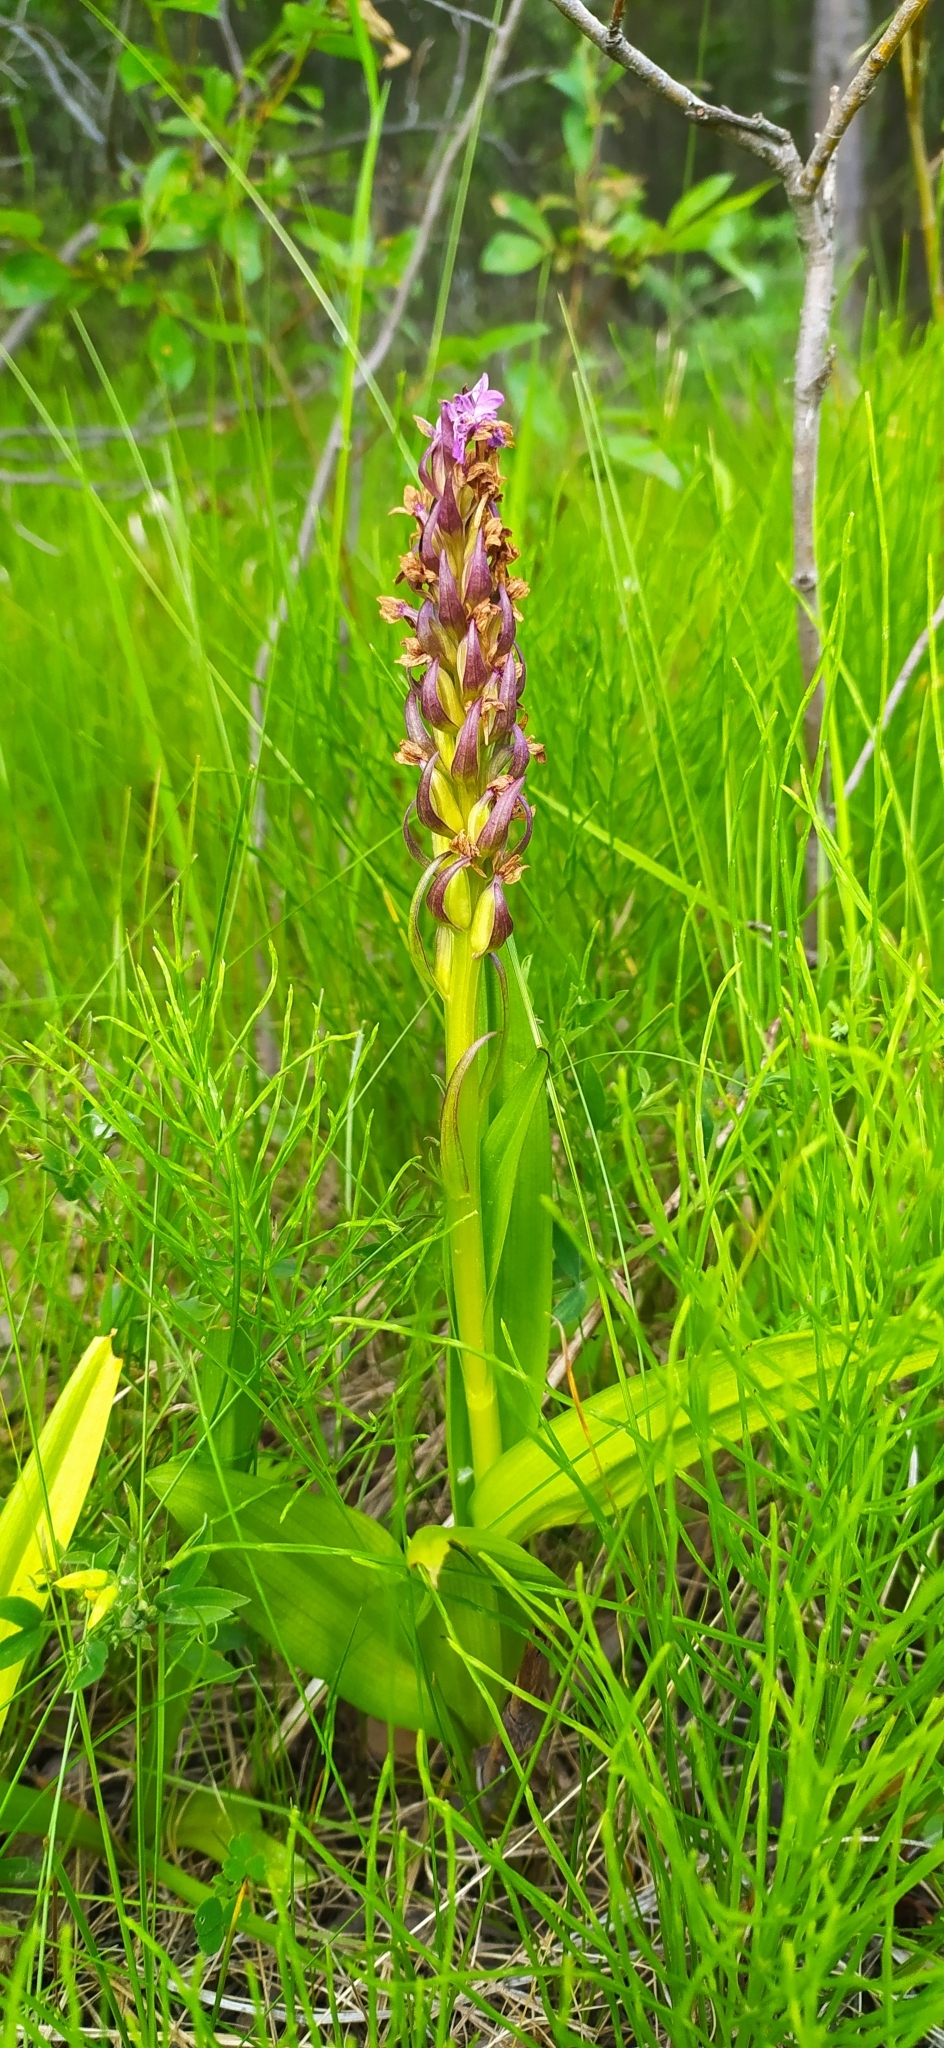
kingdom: Plantae
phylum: Tracheophyta
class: Liliopsida
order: Asparagales
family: Orchidaceae
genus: Dactylorhiza
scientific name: Dactylorhiza incarnata
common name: Early marsh-orchid
